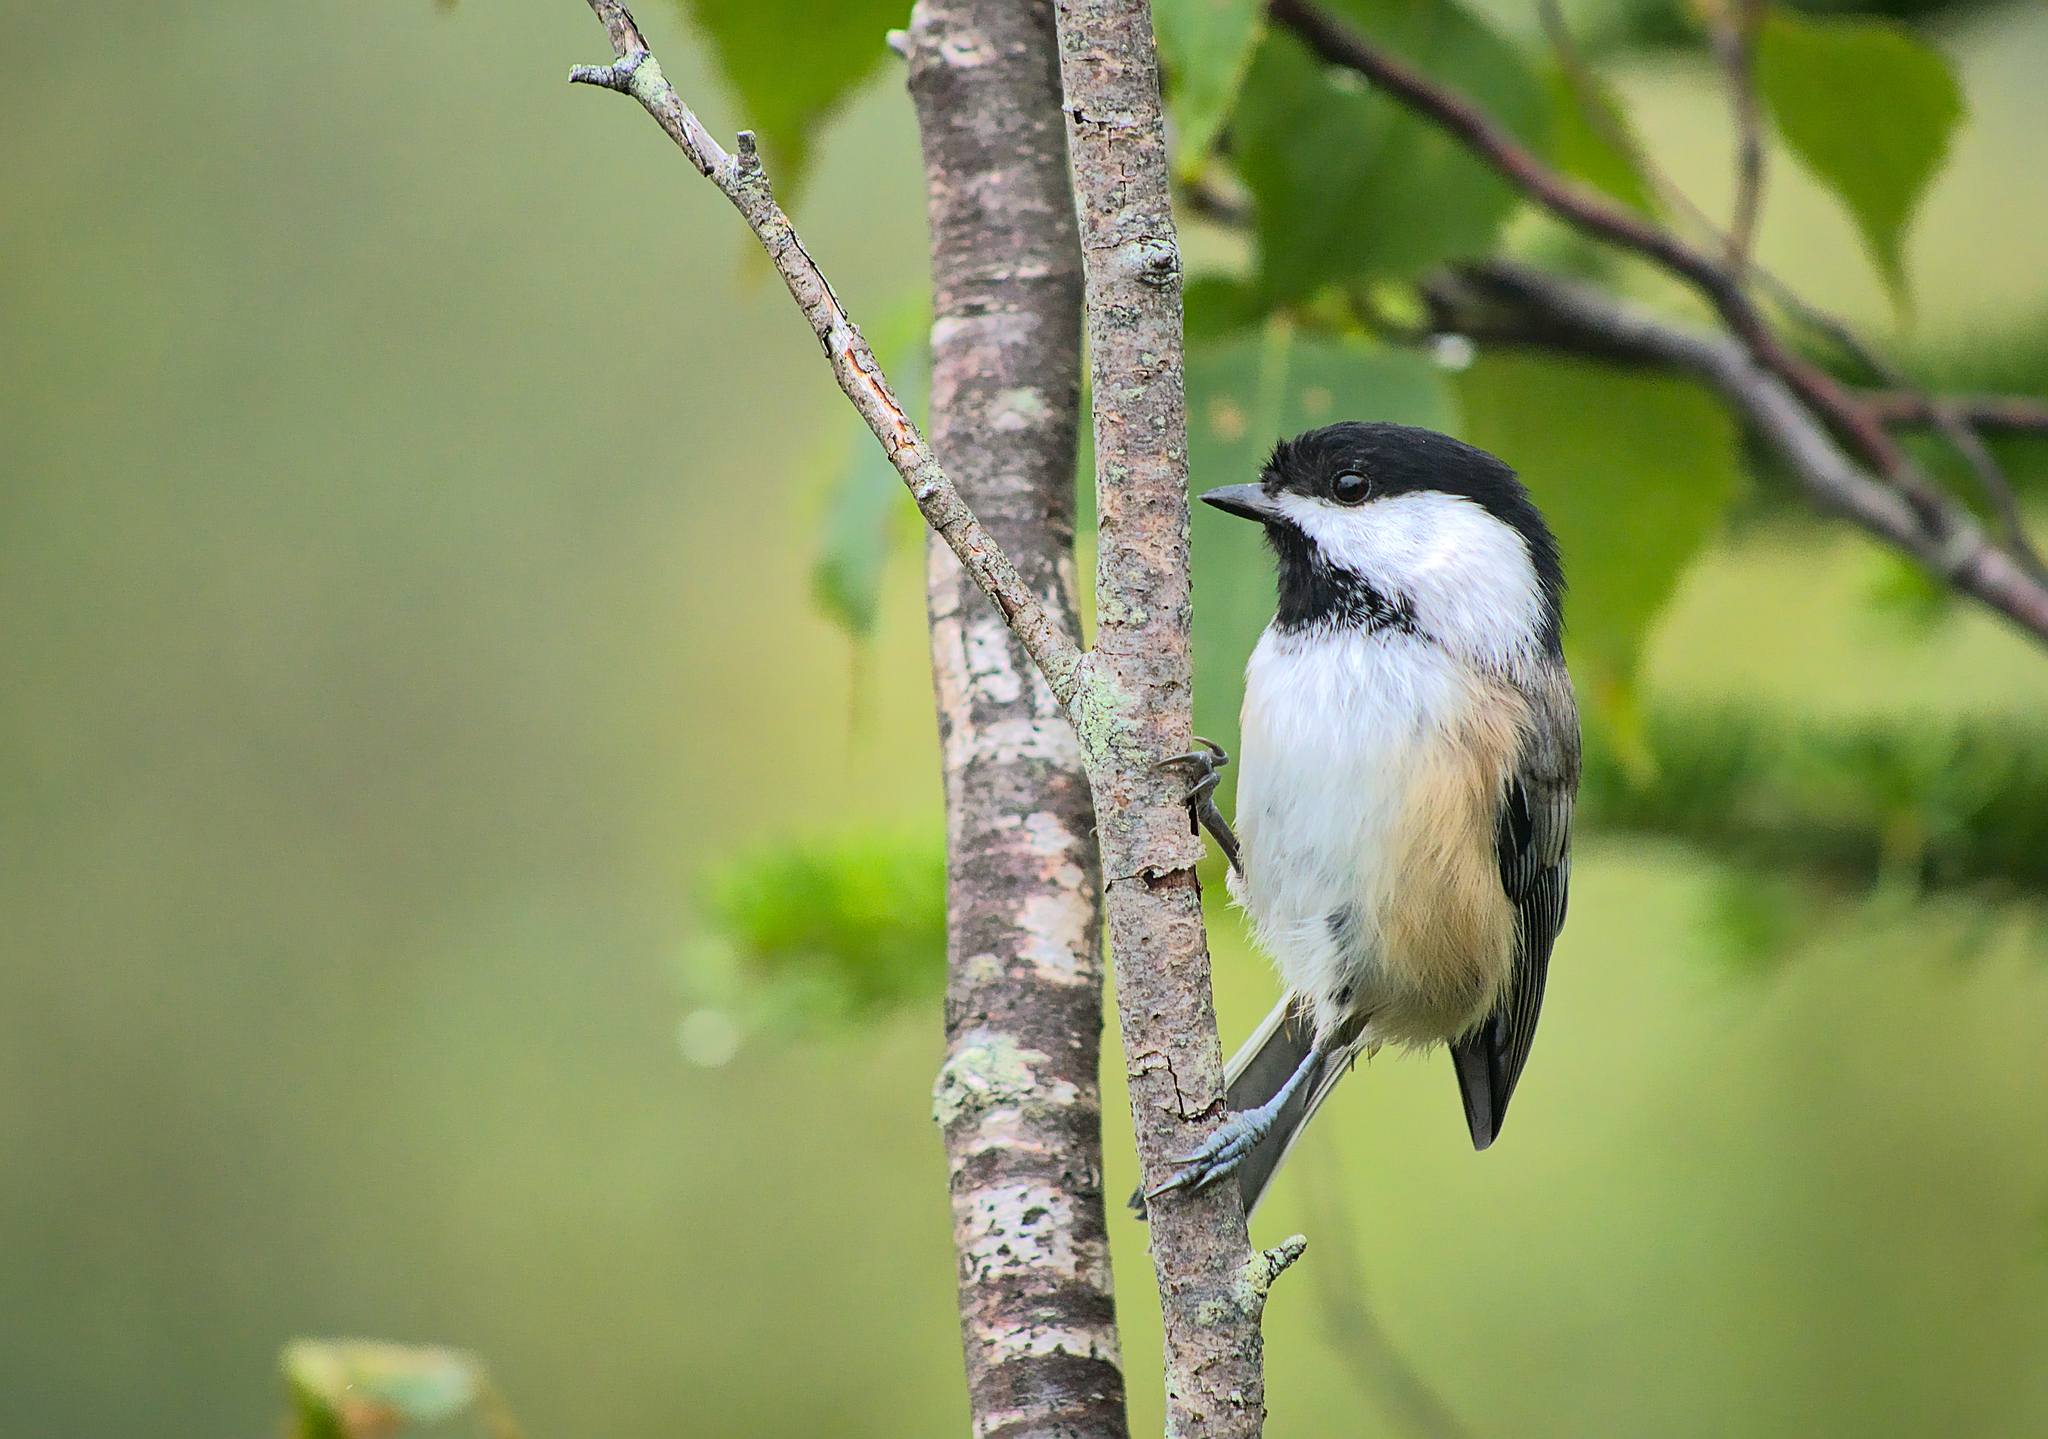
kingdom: Animalia
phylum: Chordata
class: Aves
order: Passeriformes
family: Paridae
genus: Poecile
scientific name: Poecile atricapillus
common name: Black-capped chickadee
